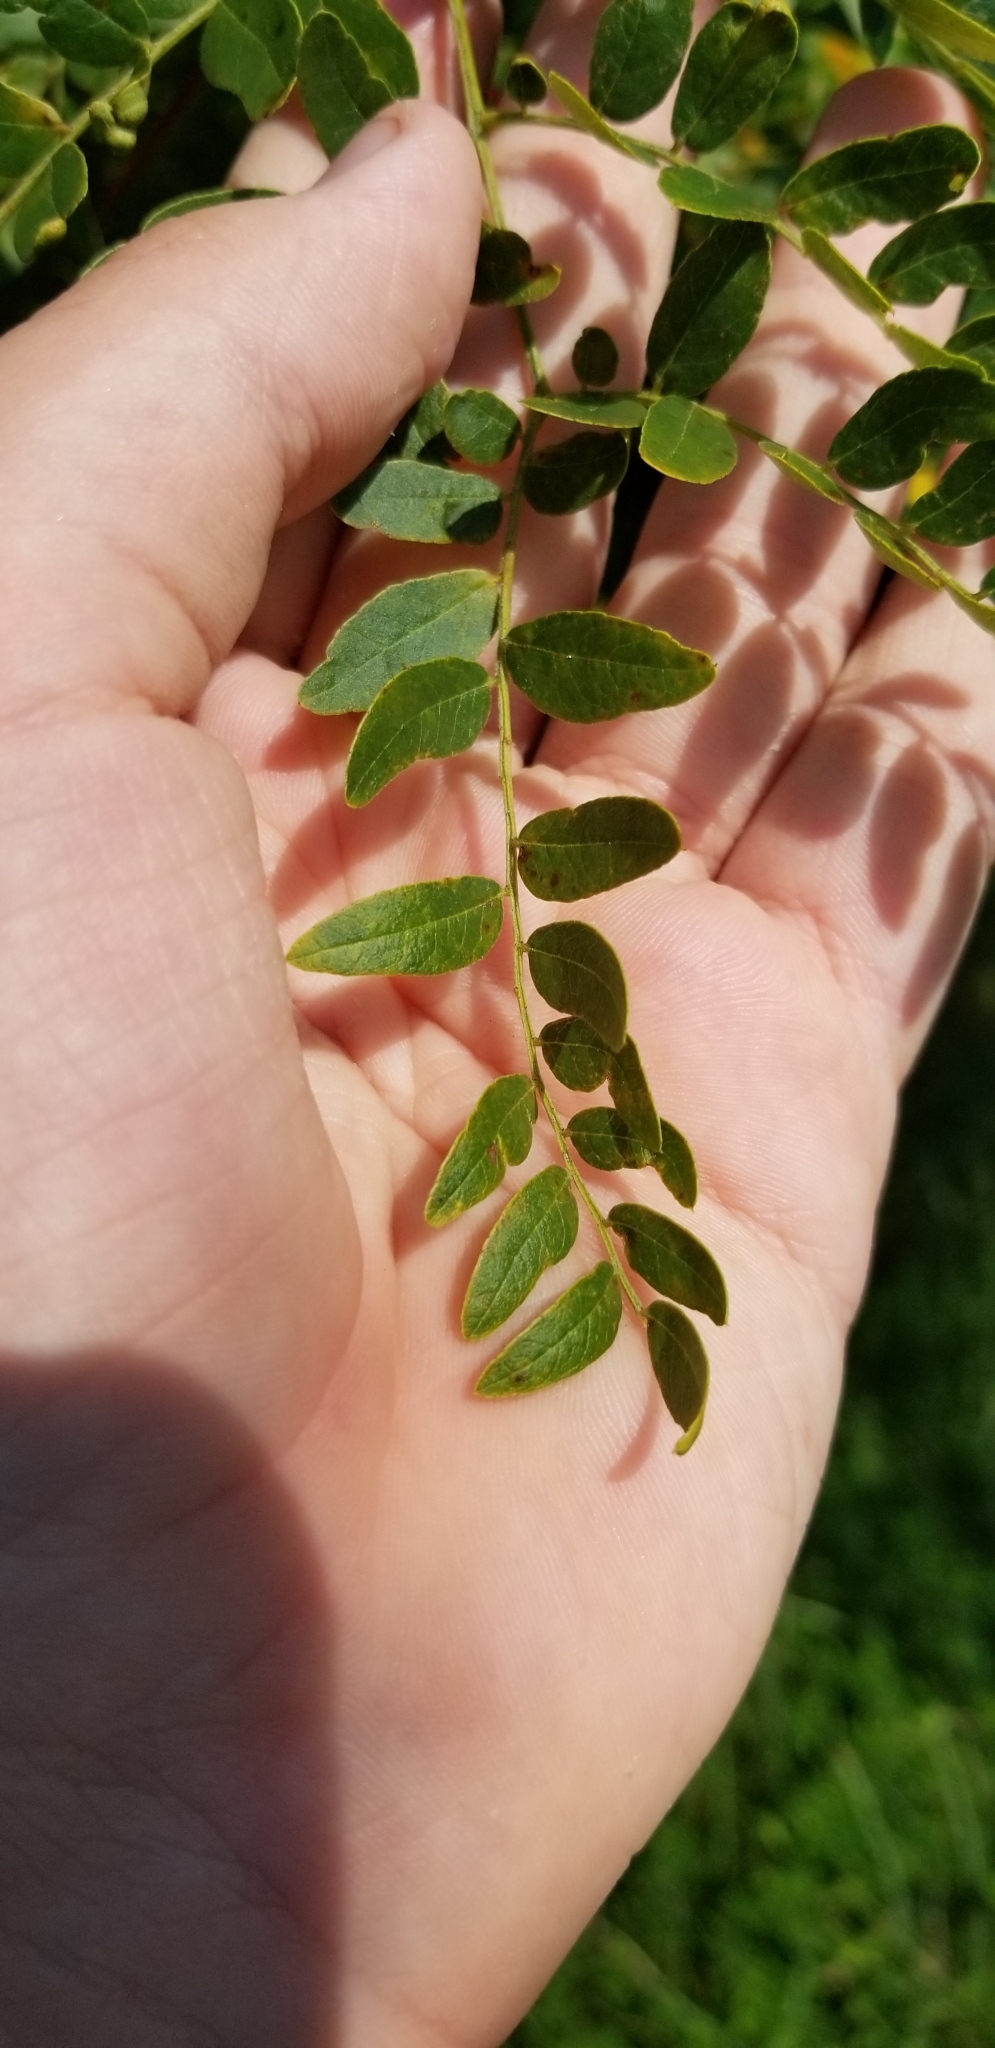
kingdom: Plantae
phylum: Tracheophyta
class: Magnoliopsida
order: Fabales
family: Fabaceae
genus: Gleditsia
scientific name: Gleditsia triacanthos
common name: Common honeylocust
